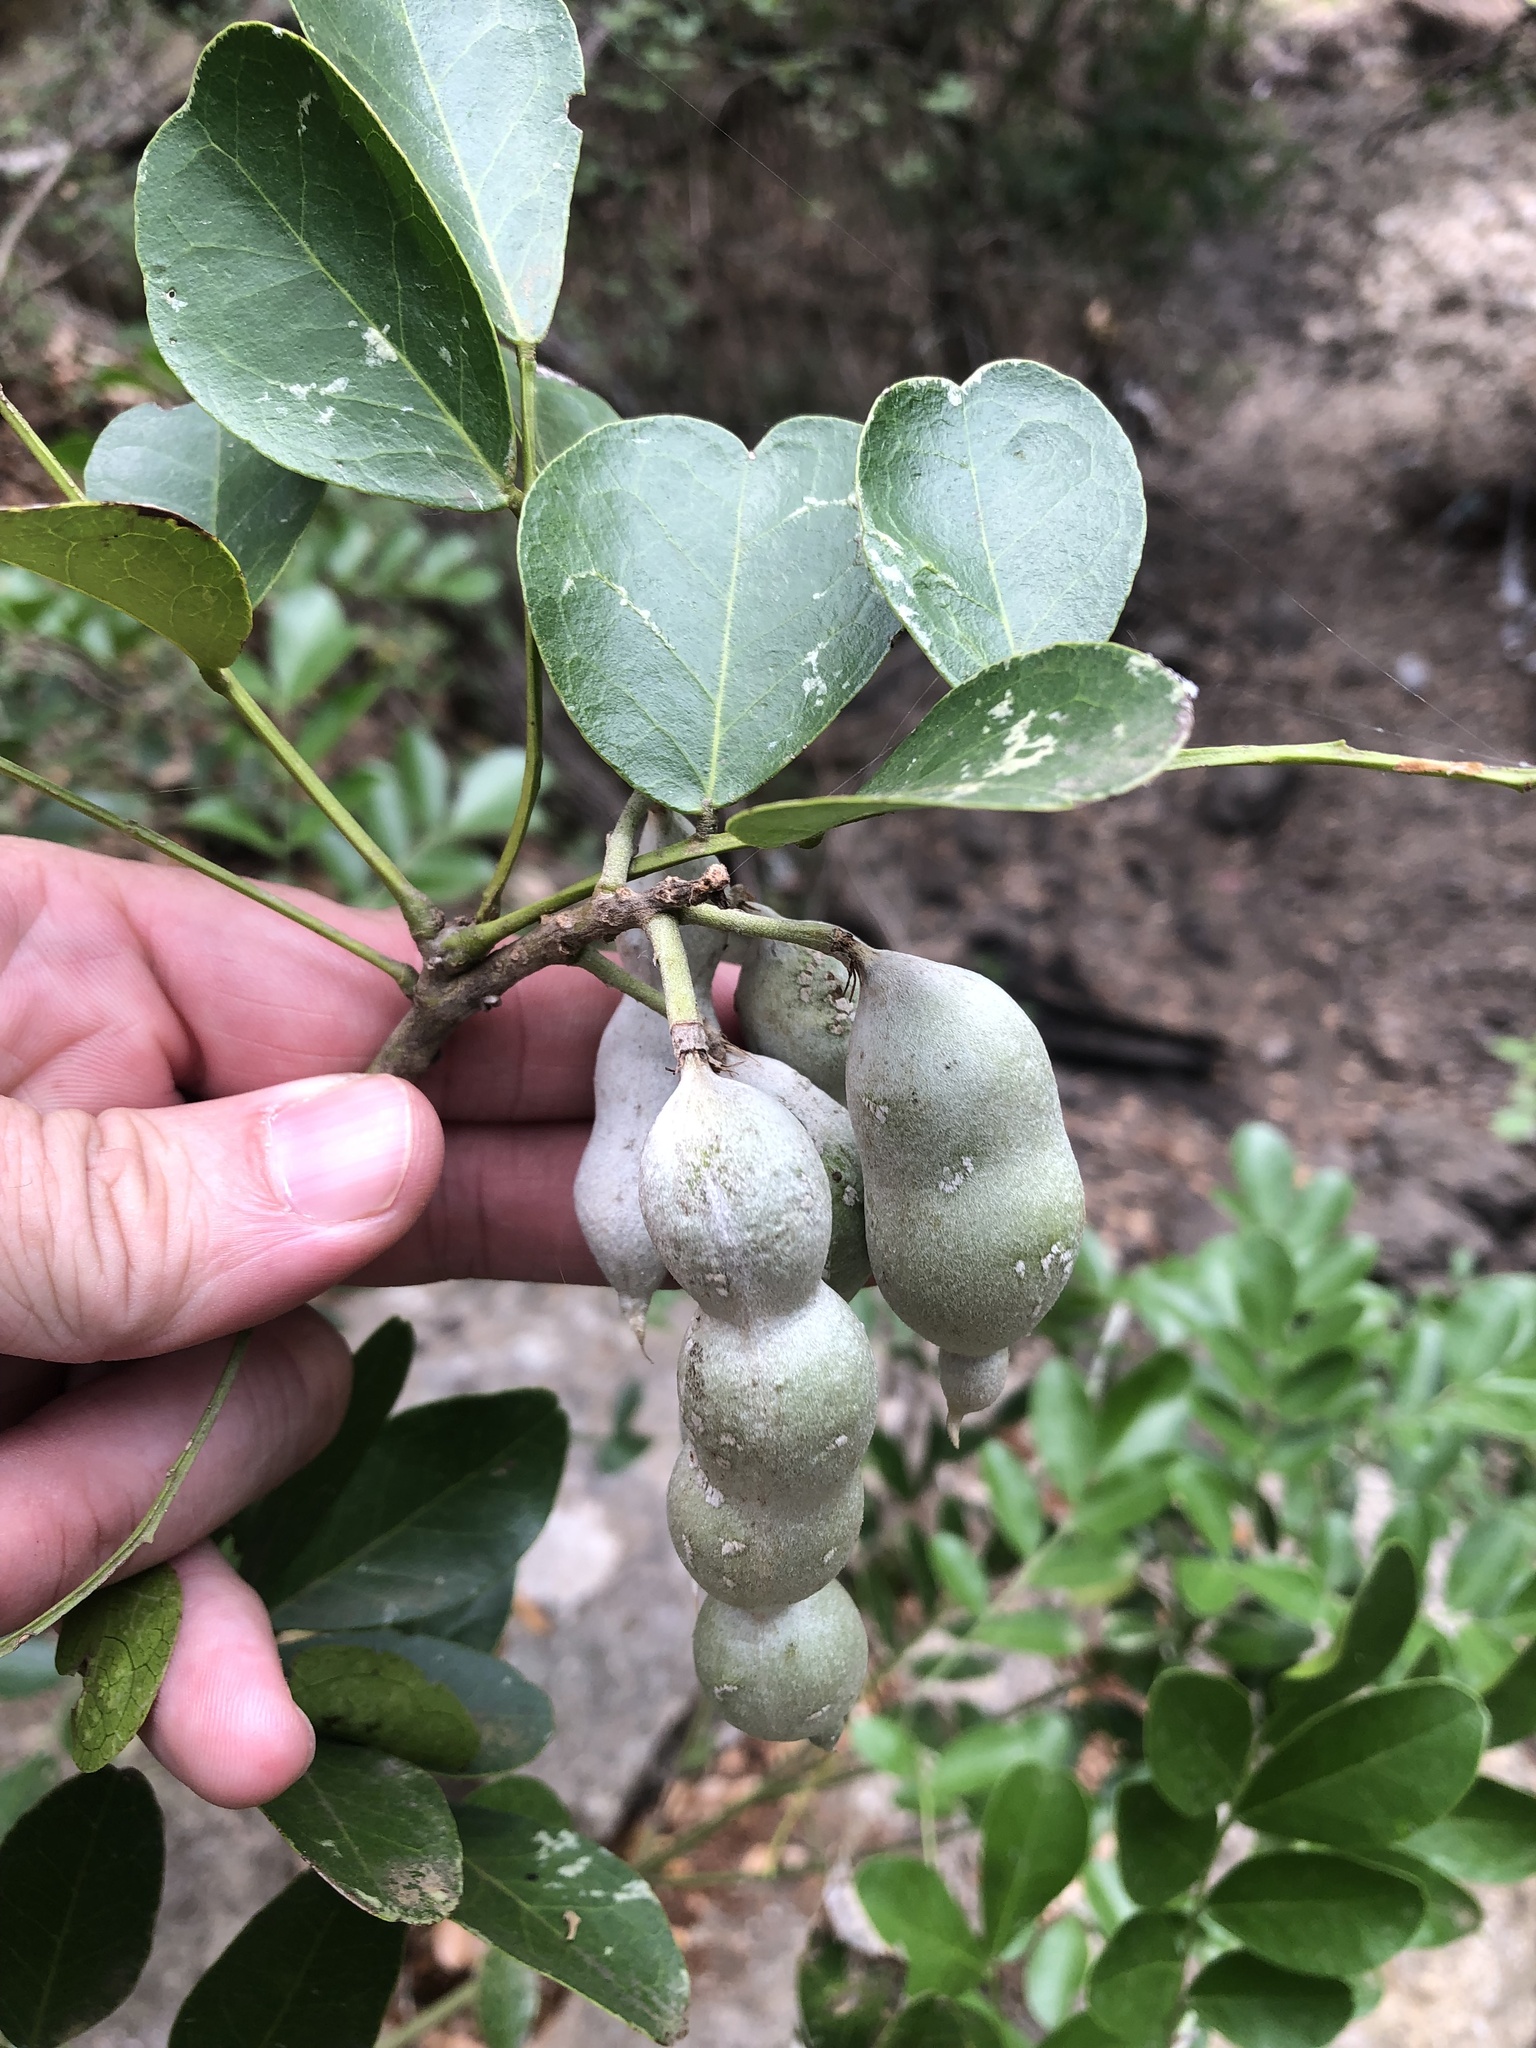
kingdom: Plantae
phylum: Tracheophyta
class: Magnoliopsida
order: Fabales
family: Fabaceae
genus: Dermatophyllum
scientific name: Dermatophyllum secundiflorum
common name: Texas-mountain-laurel
